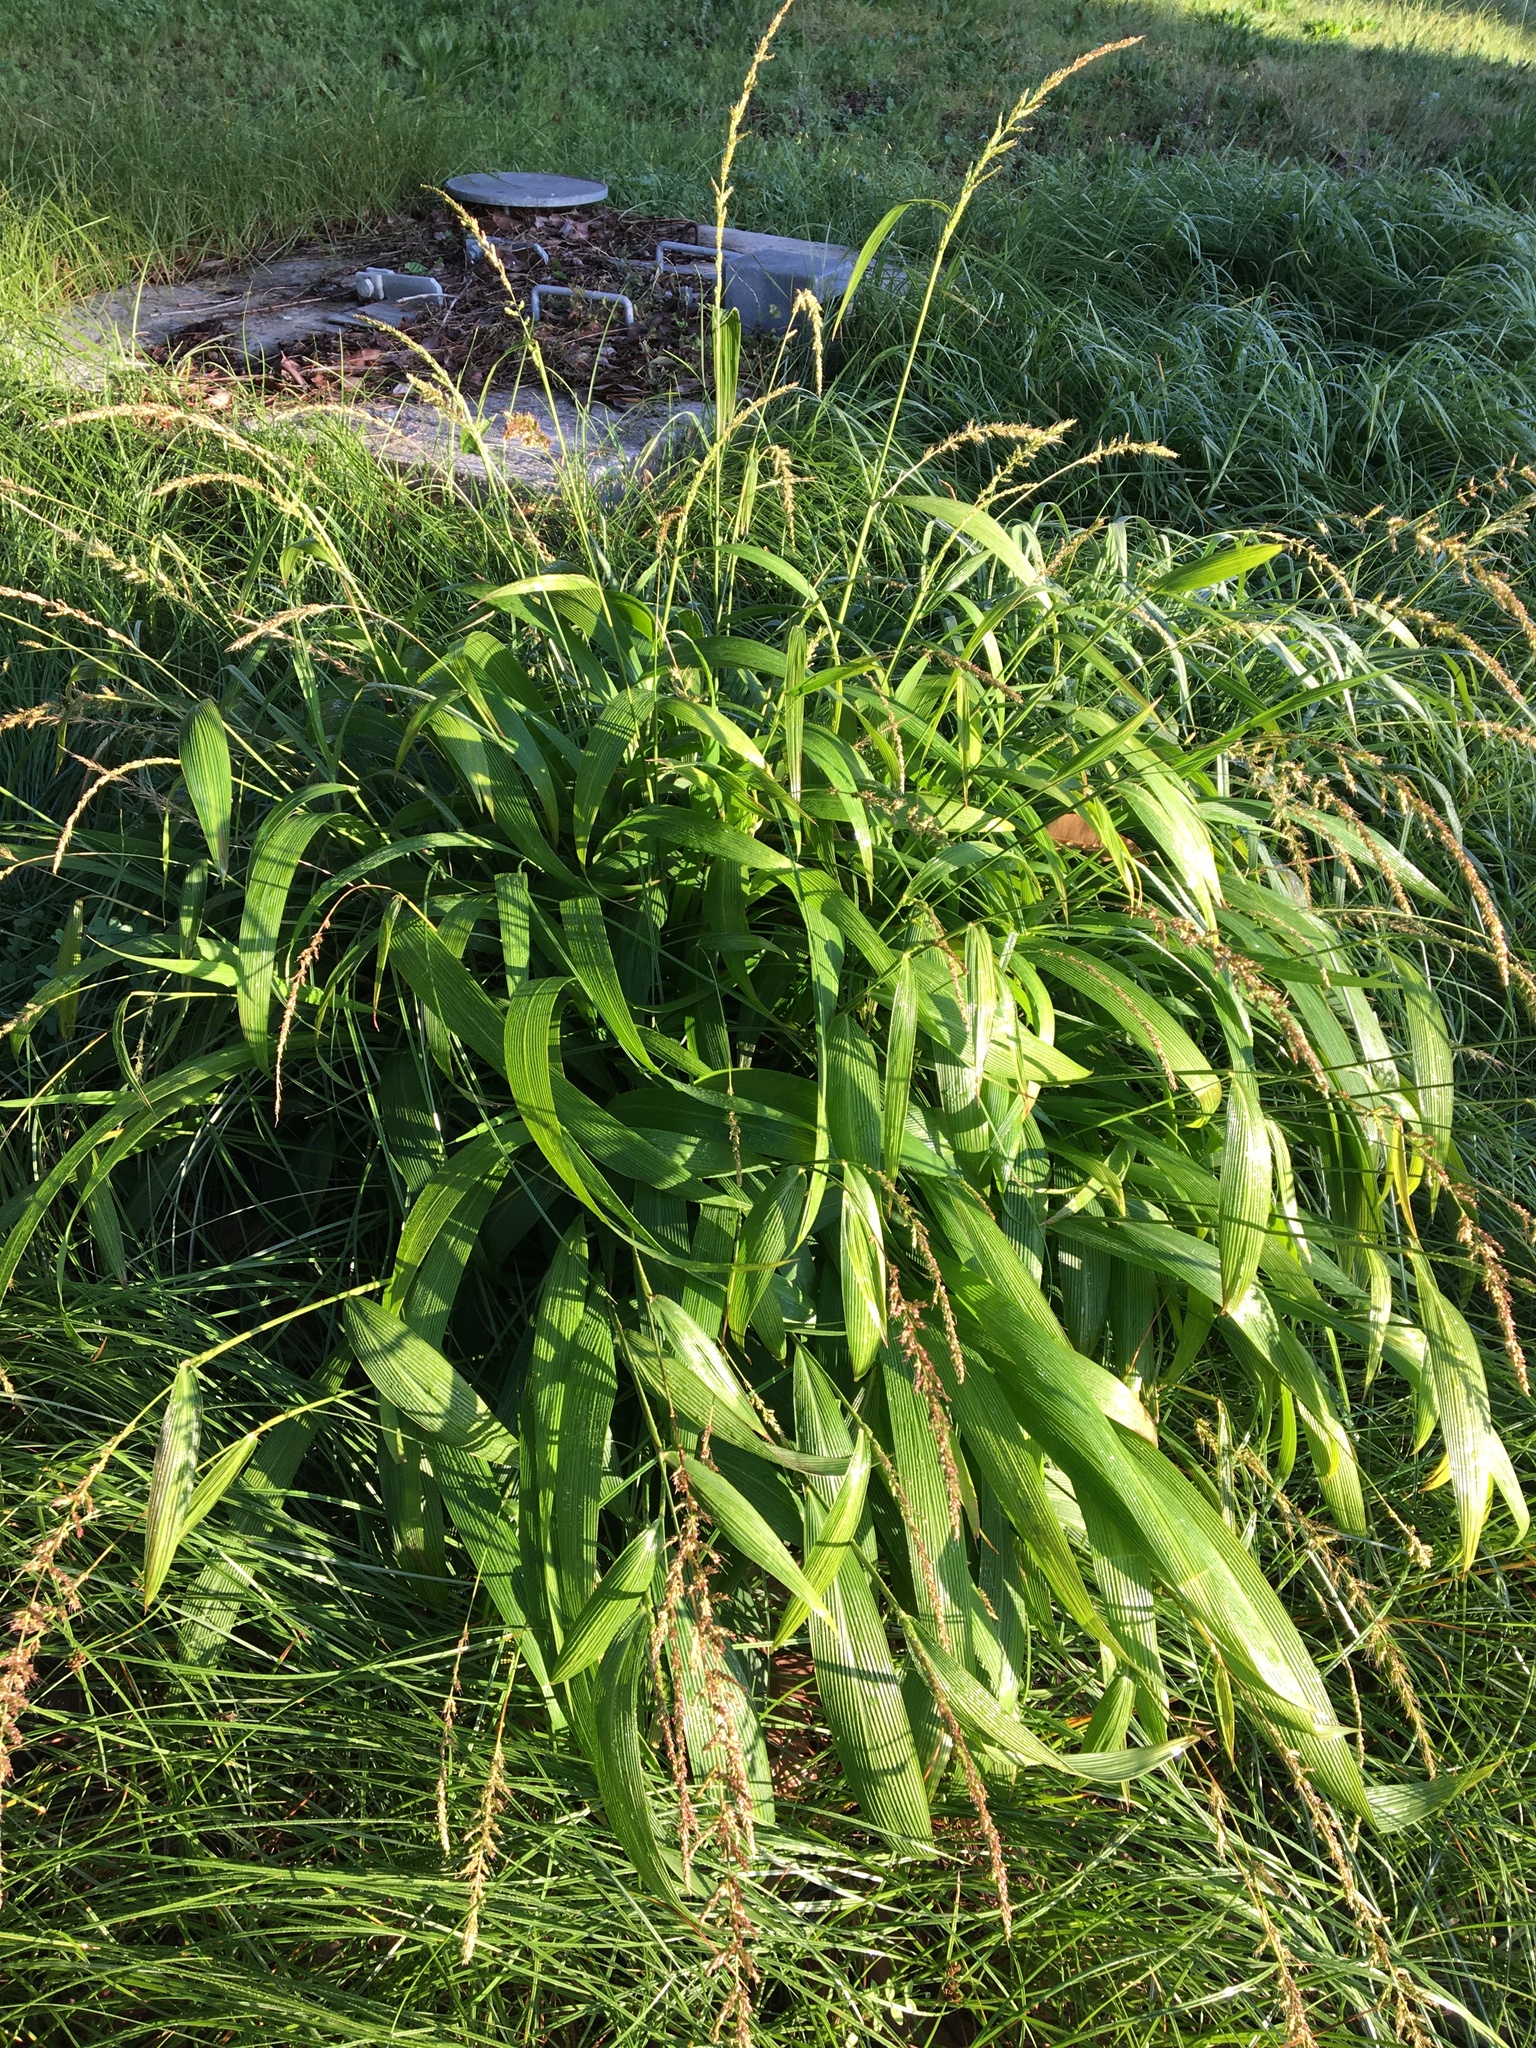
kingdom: Plantae
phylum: Tracheophyta
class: Liliopsida
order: Poales
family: Poaceae
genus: Setaria
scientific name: Setaria megaphylla
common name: Bigleaf bristlegrass
